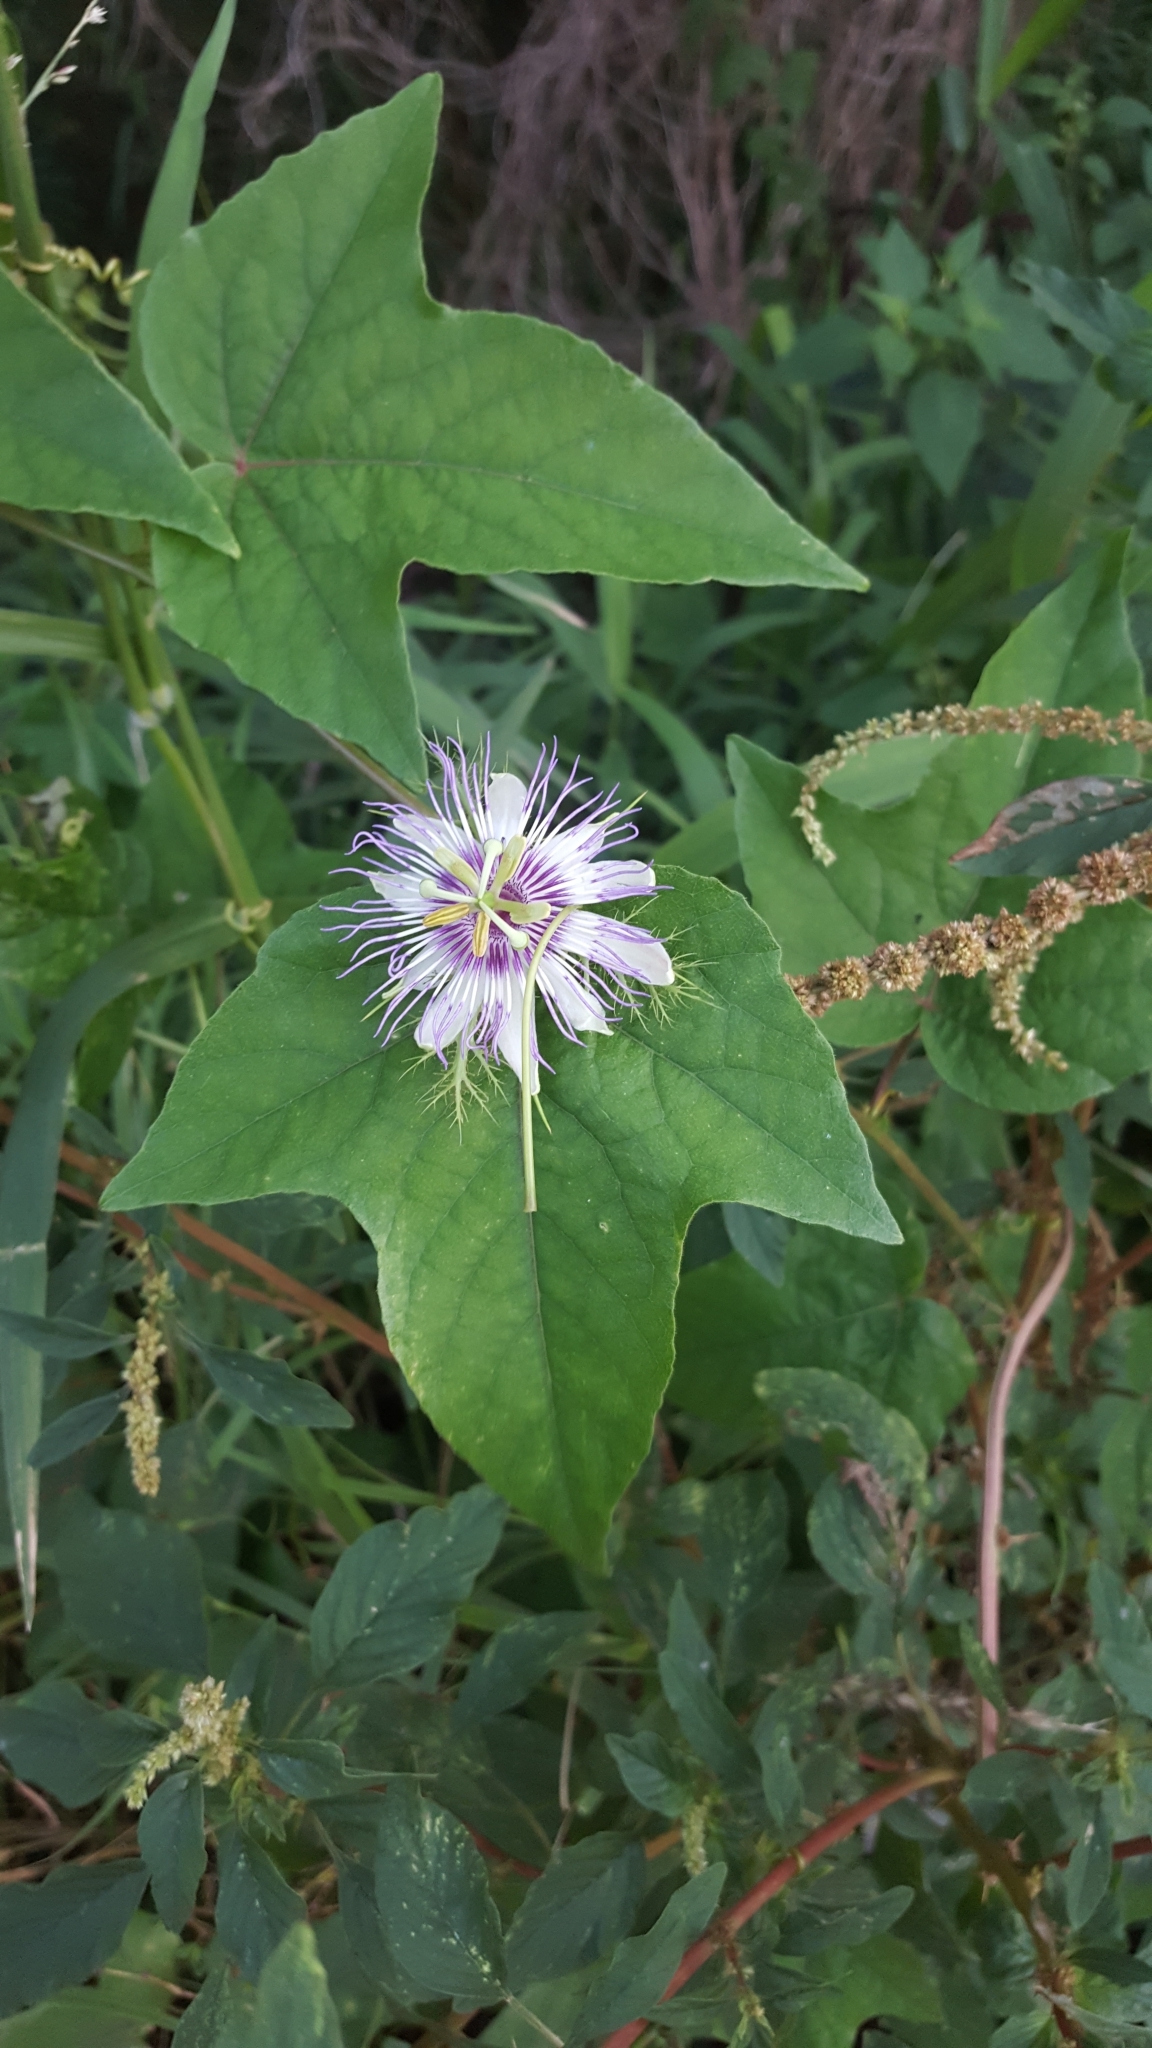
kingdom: Plantae
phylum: Tracheophyta
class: Magnoliopsida
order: Malpighiales
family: Passifloraceae
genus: Passiflora
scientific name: Passiflora ciliata
